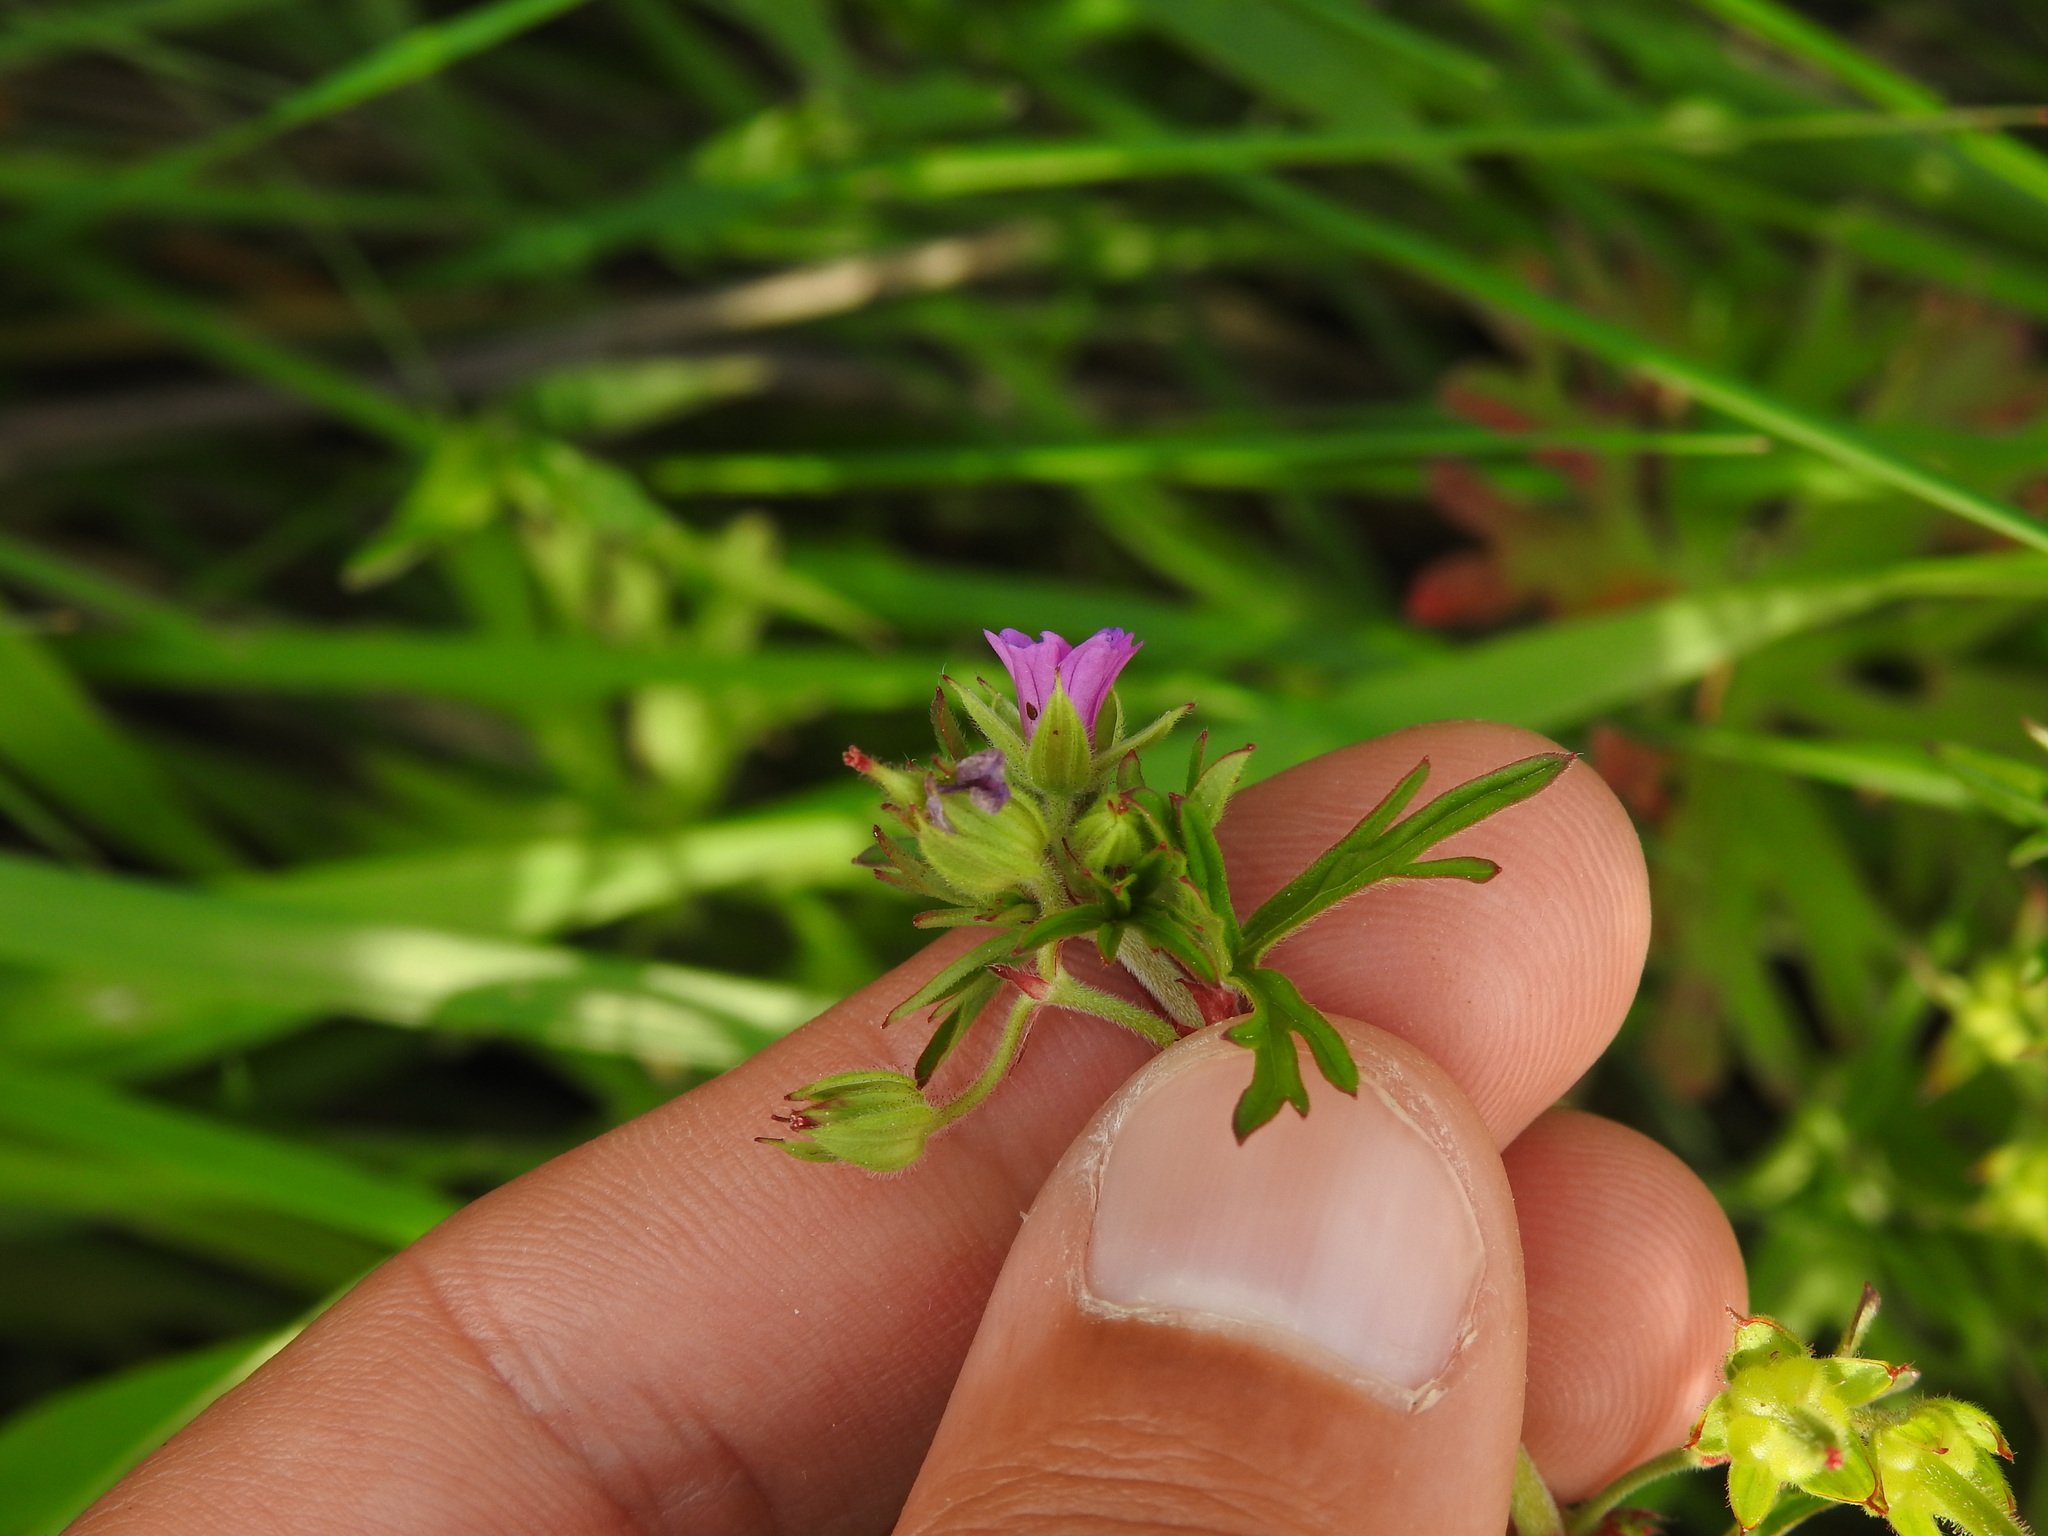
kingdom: Plantae
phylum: Tracheophyta
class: Magnoliopsida
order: Geraniales
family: Geraniaceae
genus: Geranium
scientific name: Geranium dissectum
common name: Cut-leaved crane's-bill
